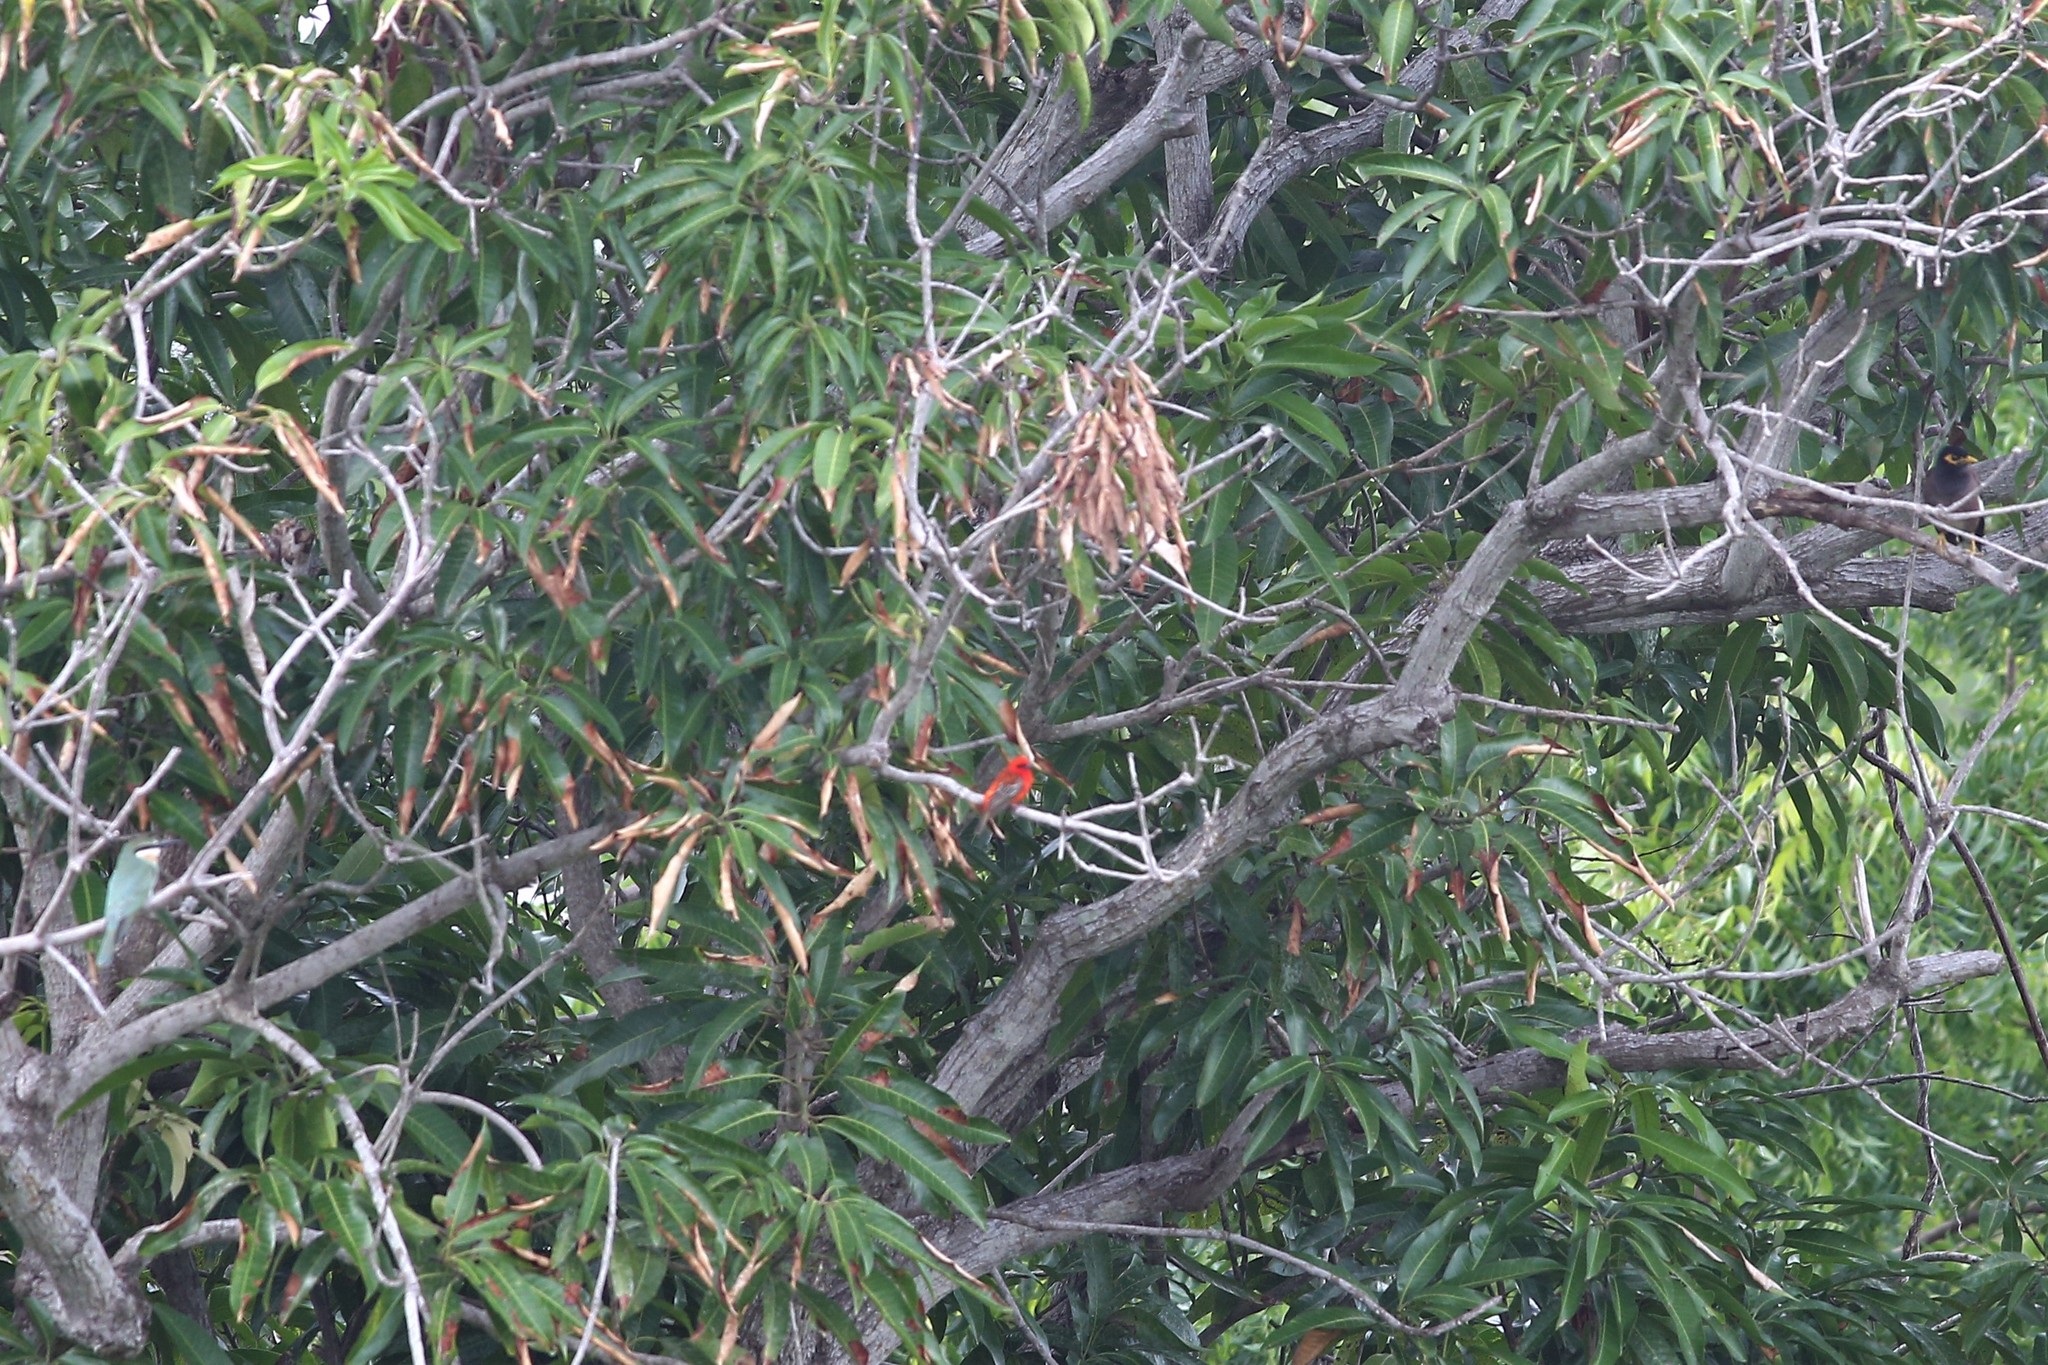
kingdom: Animalia
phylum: Chordata
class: Aves
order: Passeriformes
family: Ploceidae
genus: Foudia
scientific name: Foudia madagascariensis
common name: Red fody
